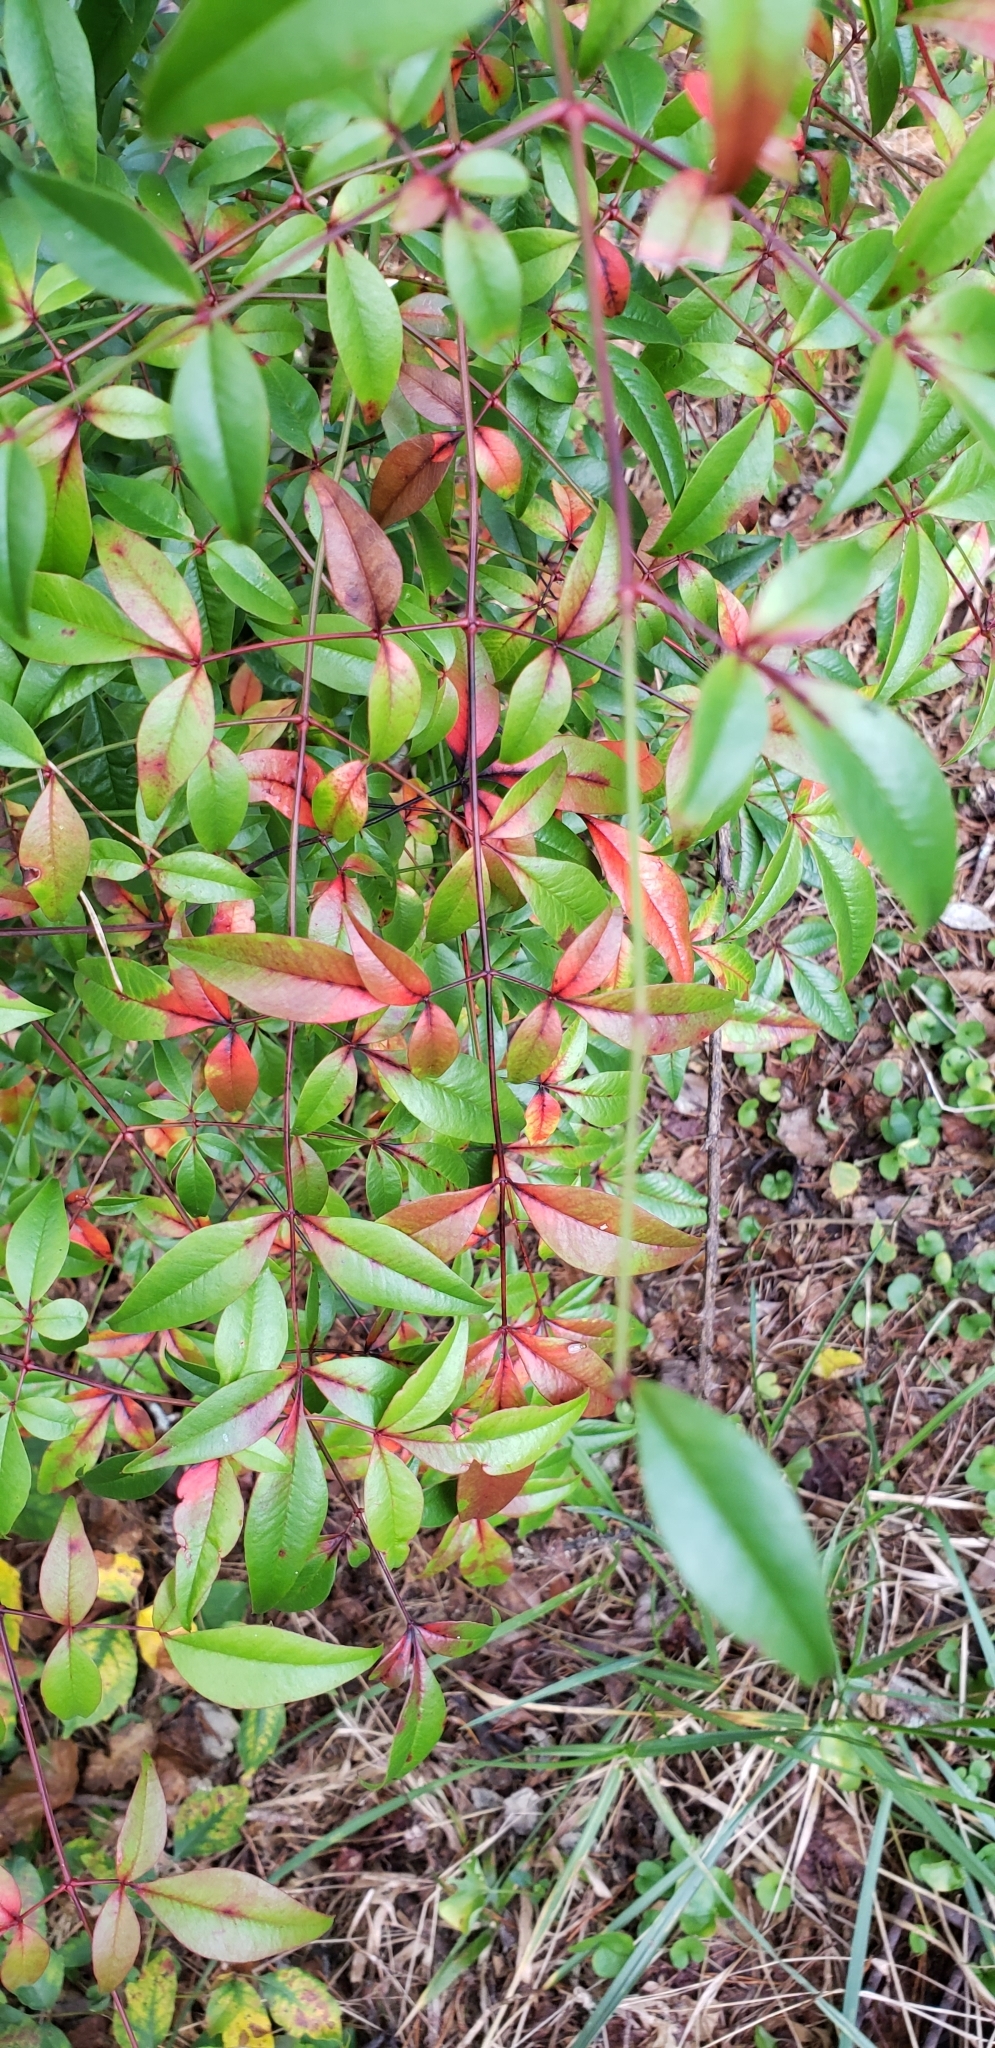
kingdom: Plantae
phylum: Tracheophyta
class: Magnoliopsida
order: Ranunculales
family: Berberidaceae
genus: Nandina
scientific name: Nandina domestica
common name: Sacred bamboo
